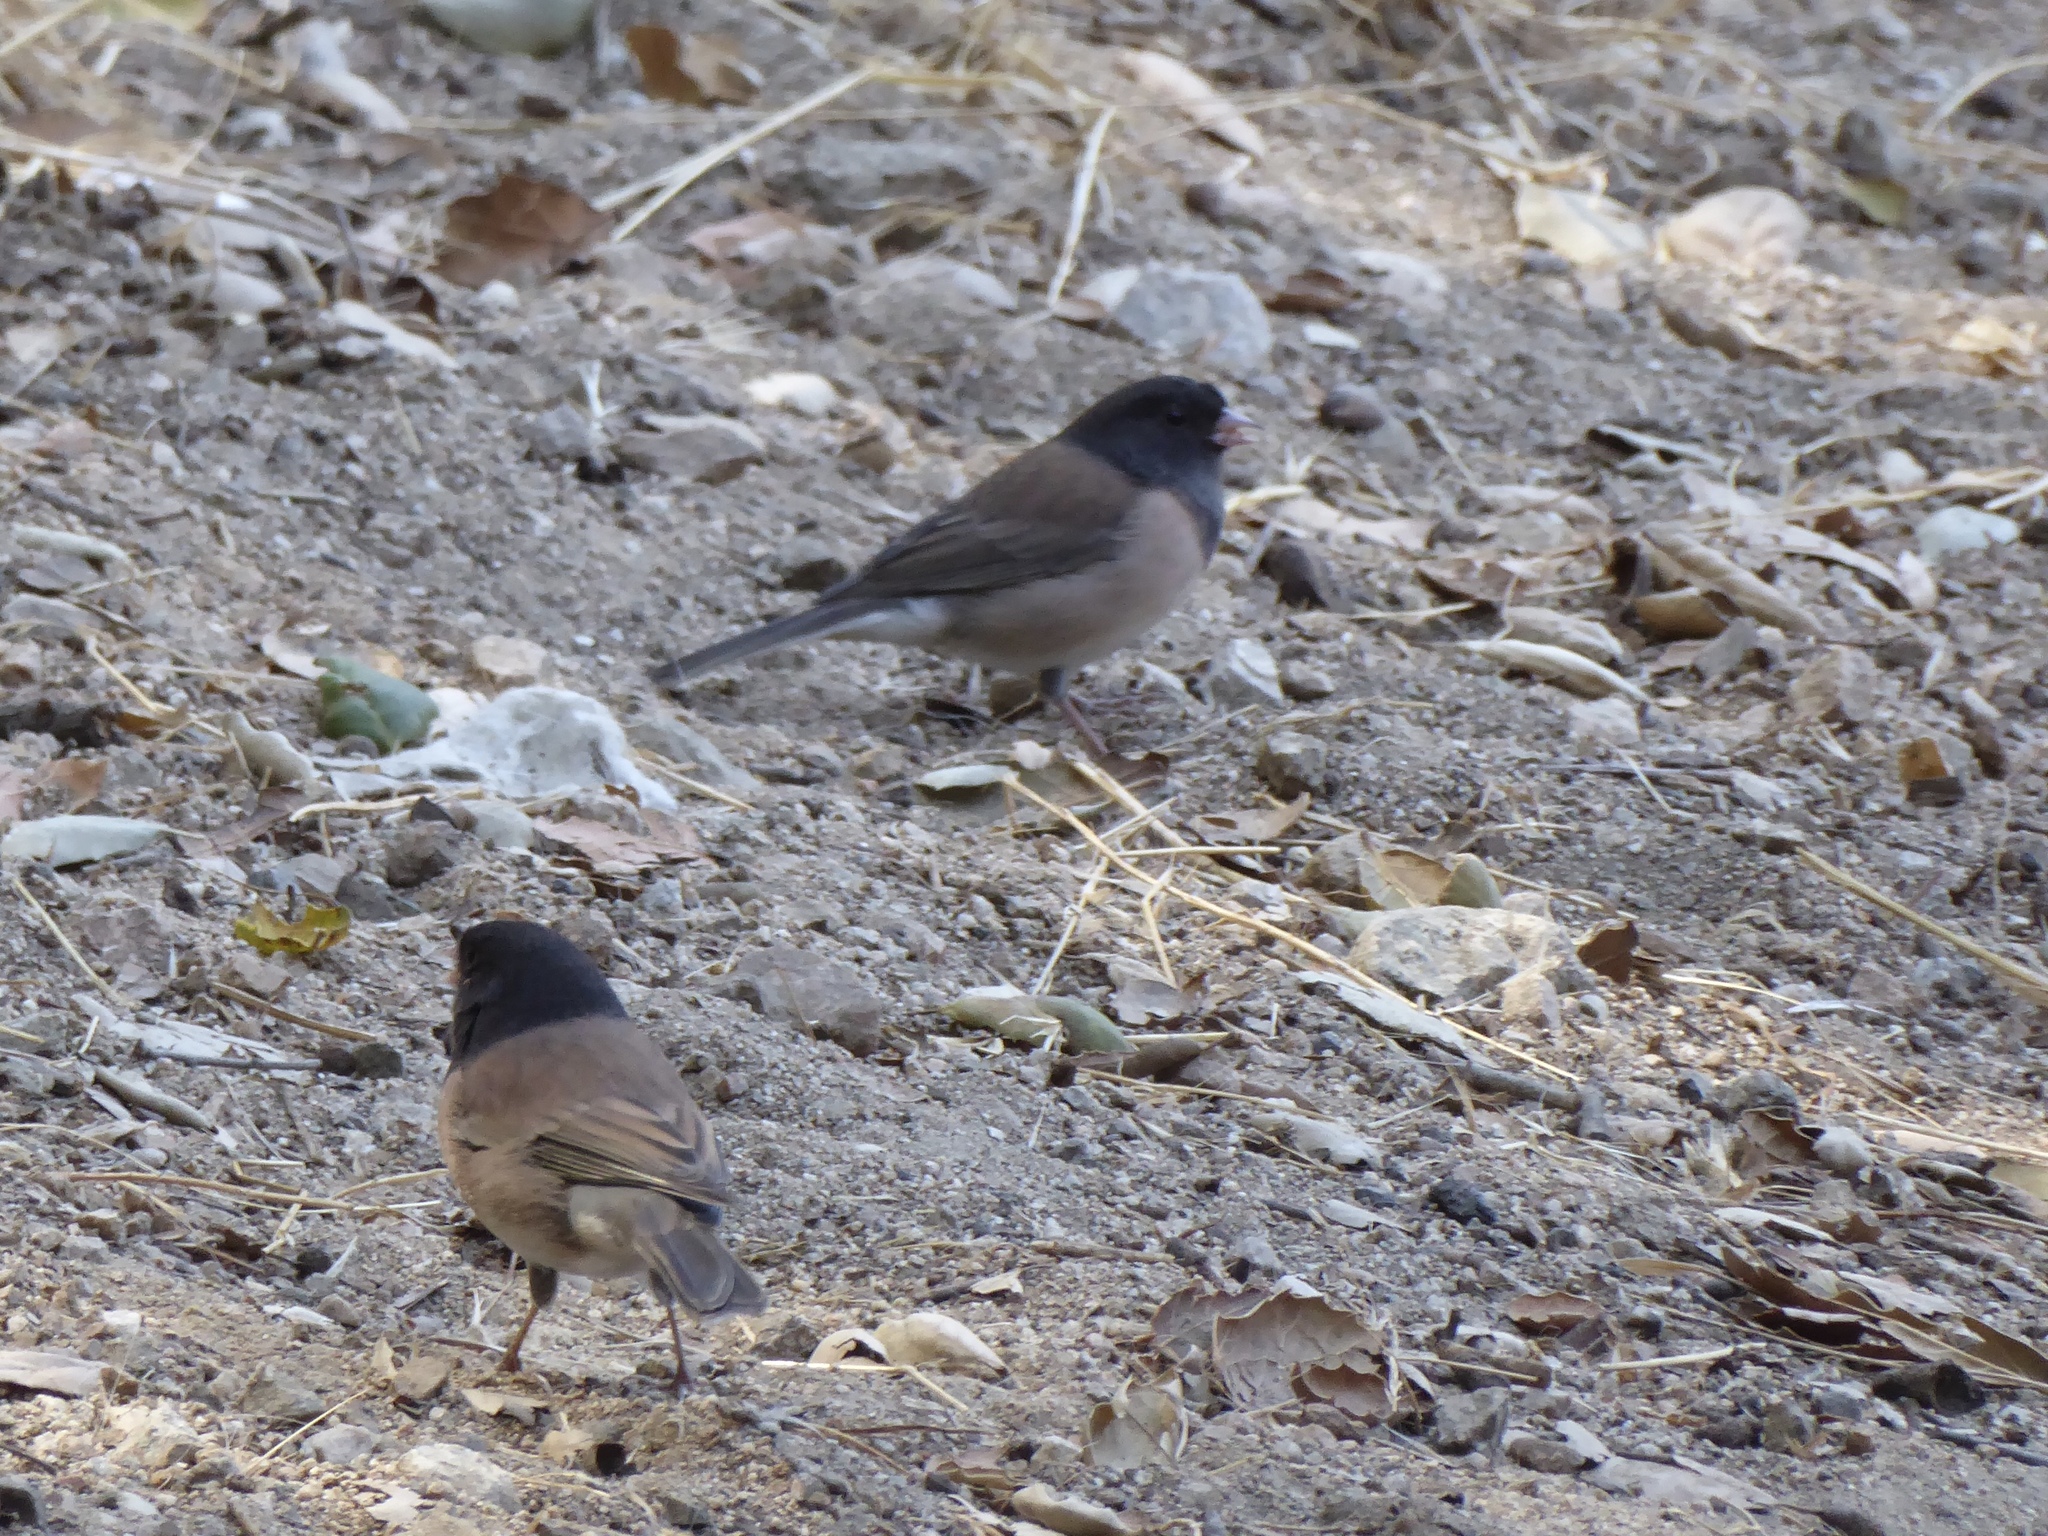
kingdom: Animalia
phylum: Chordata
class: Aves
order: Passeriformes
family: Passerellidae
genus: Junco
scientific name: Junco hyemalis
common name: Dark-eyed junco
